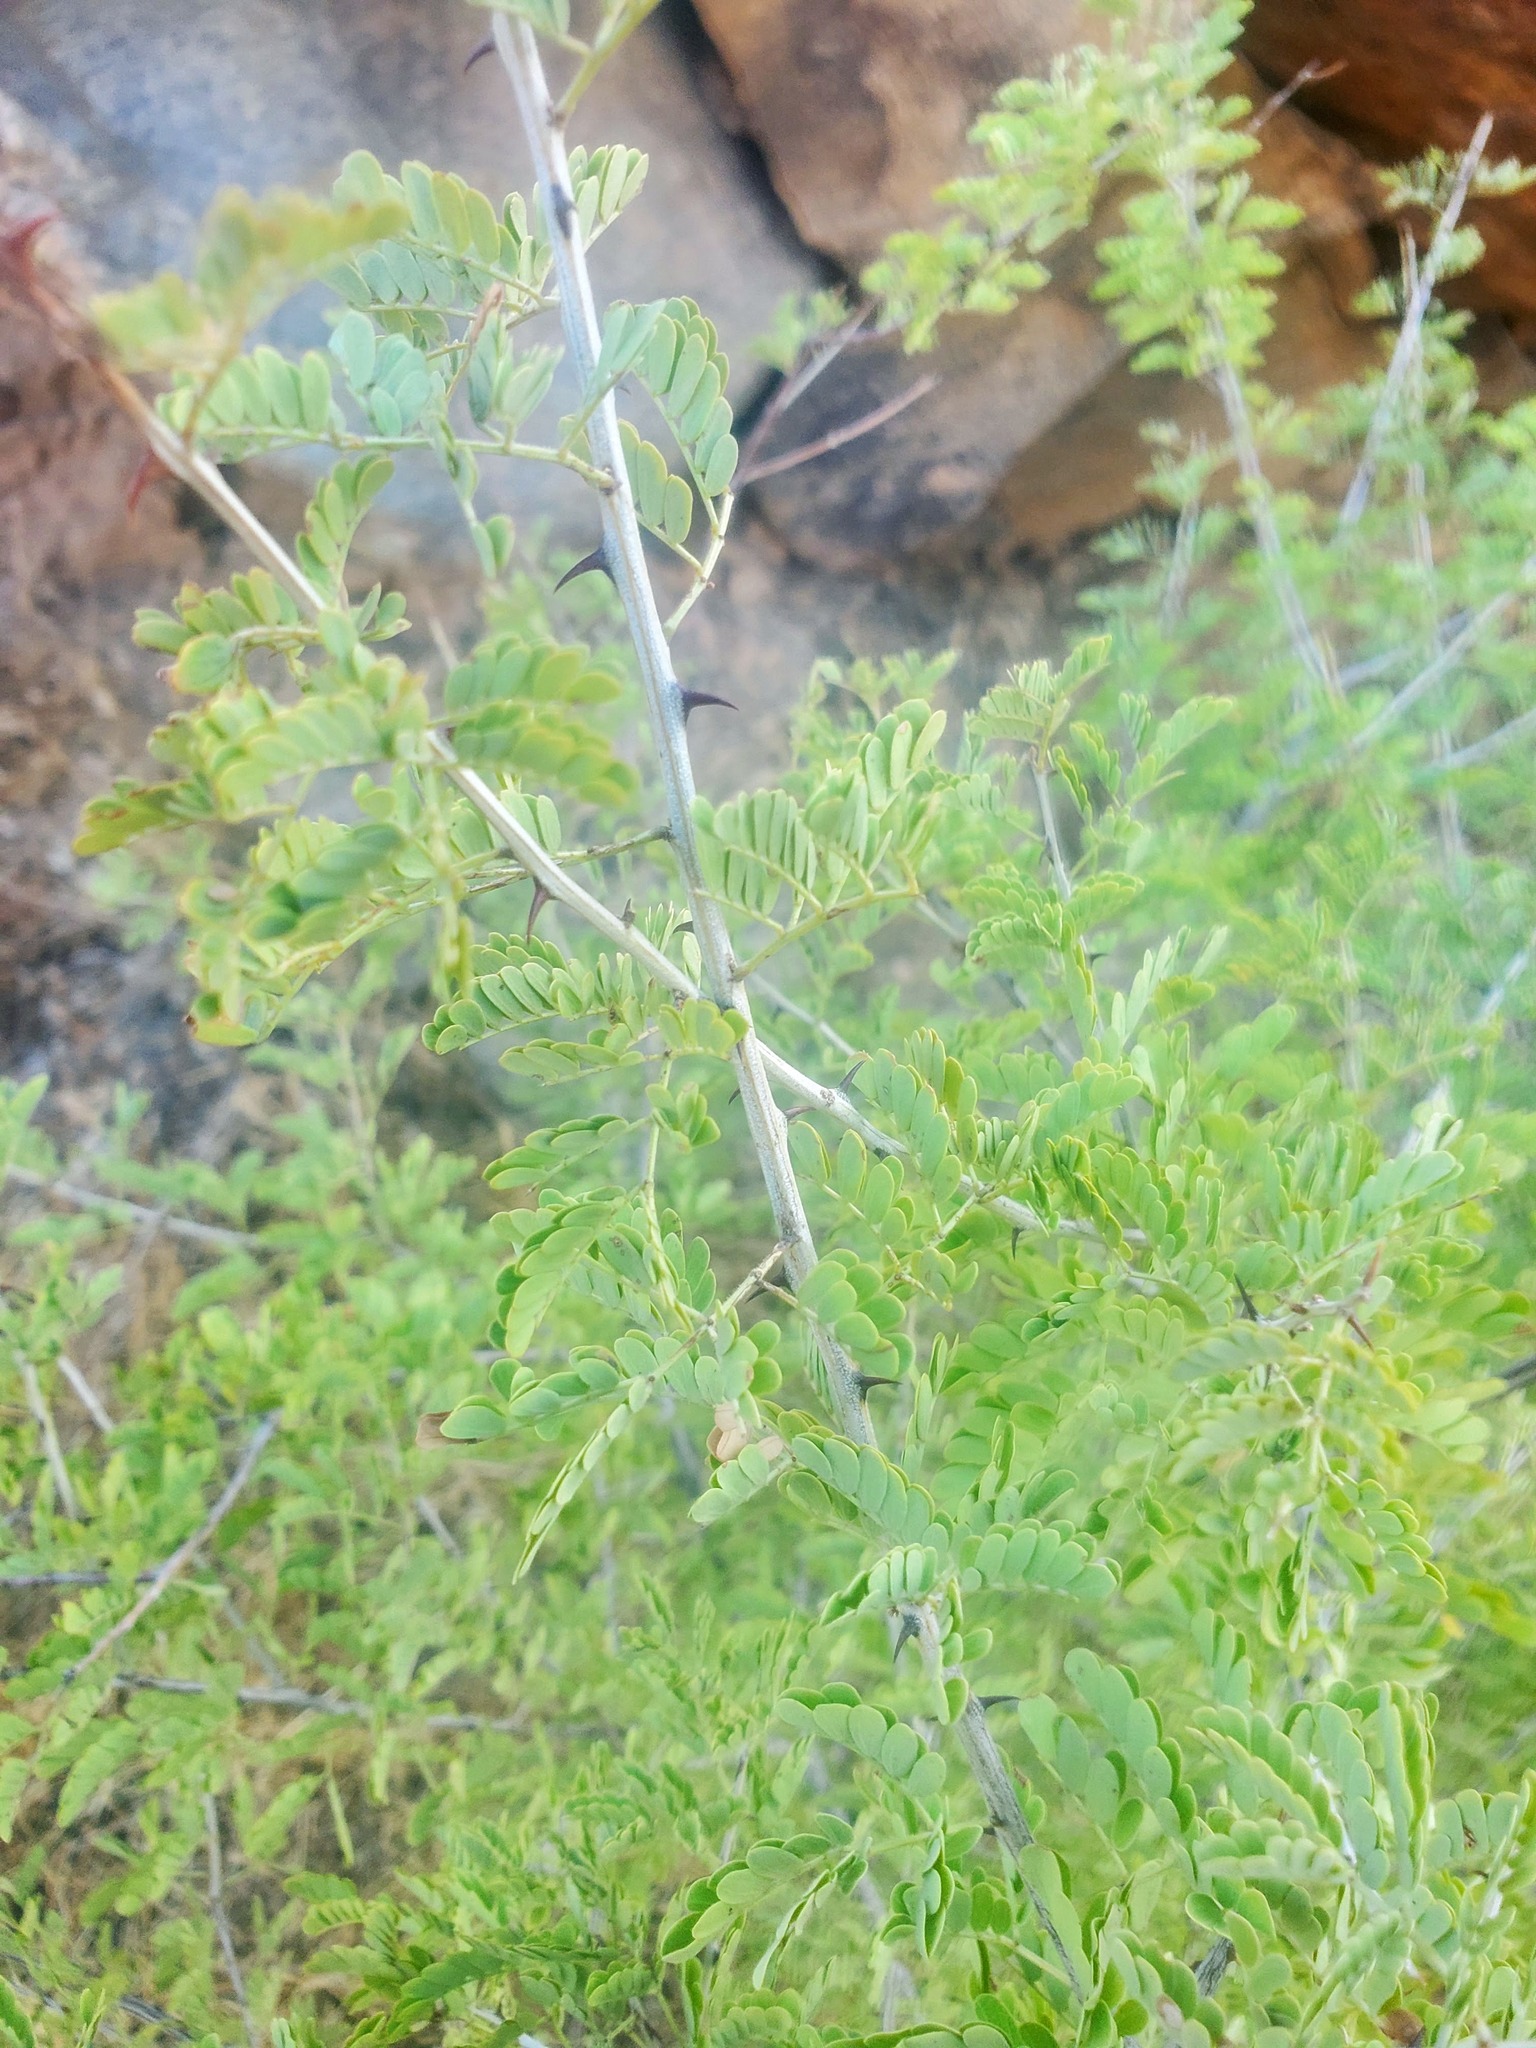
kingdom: Plantae
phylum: Tracheophyta
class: Magnoliopsida
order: Fabales
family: Fabaceae
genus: Senegalia
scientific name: Senegalia greggii
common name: Texas-mimosa
